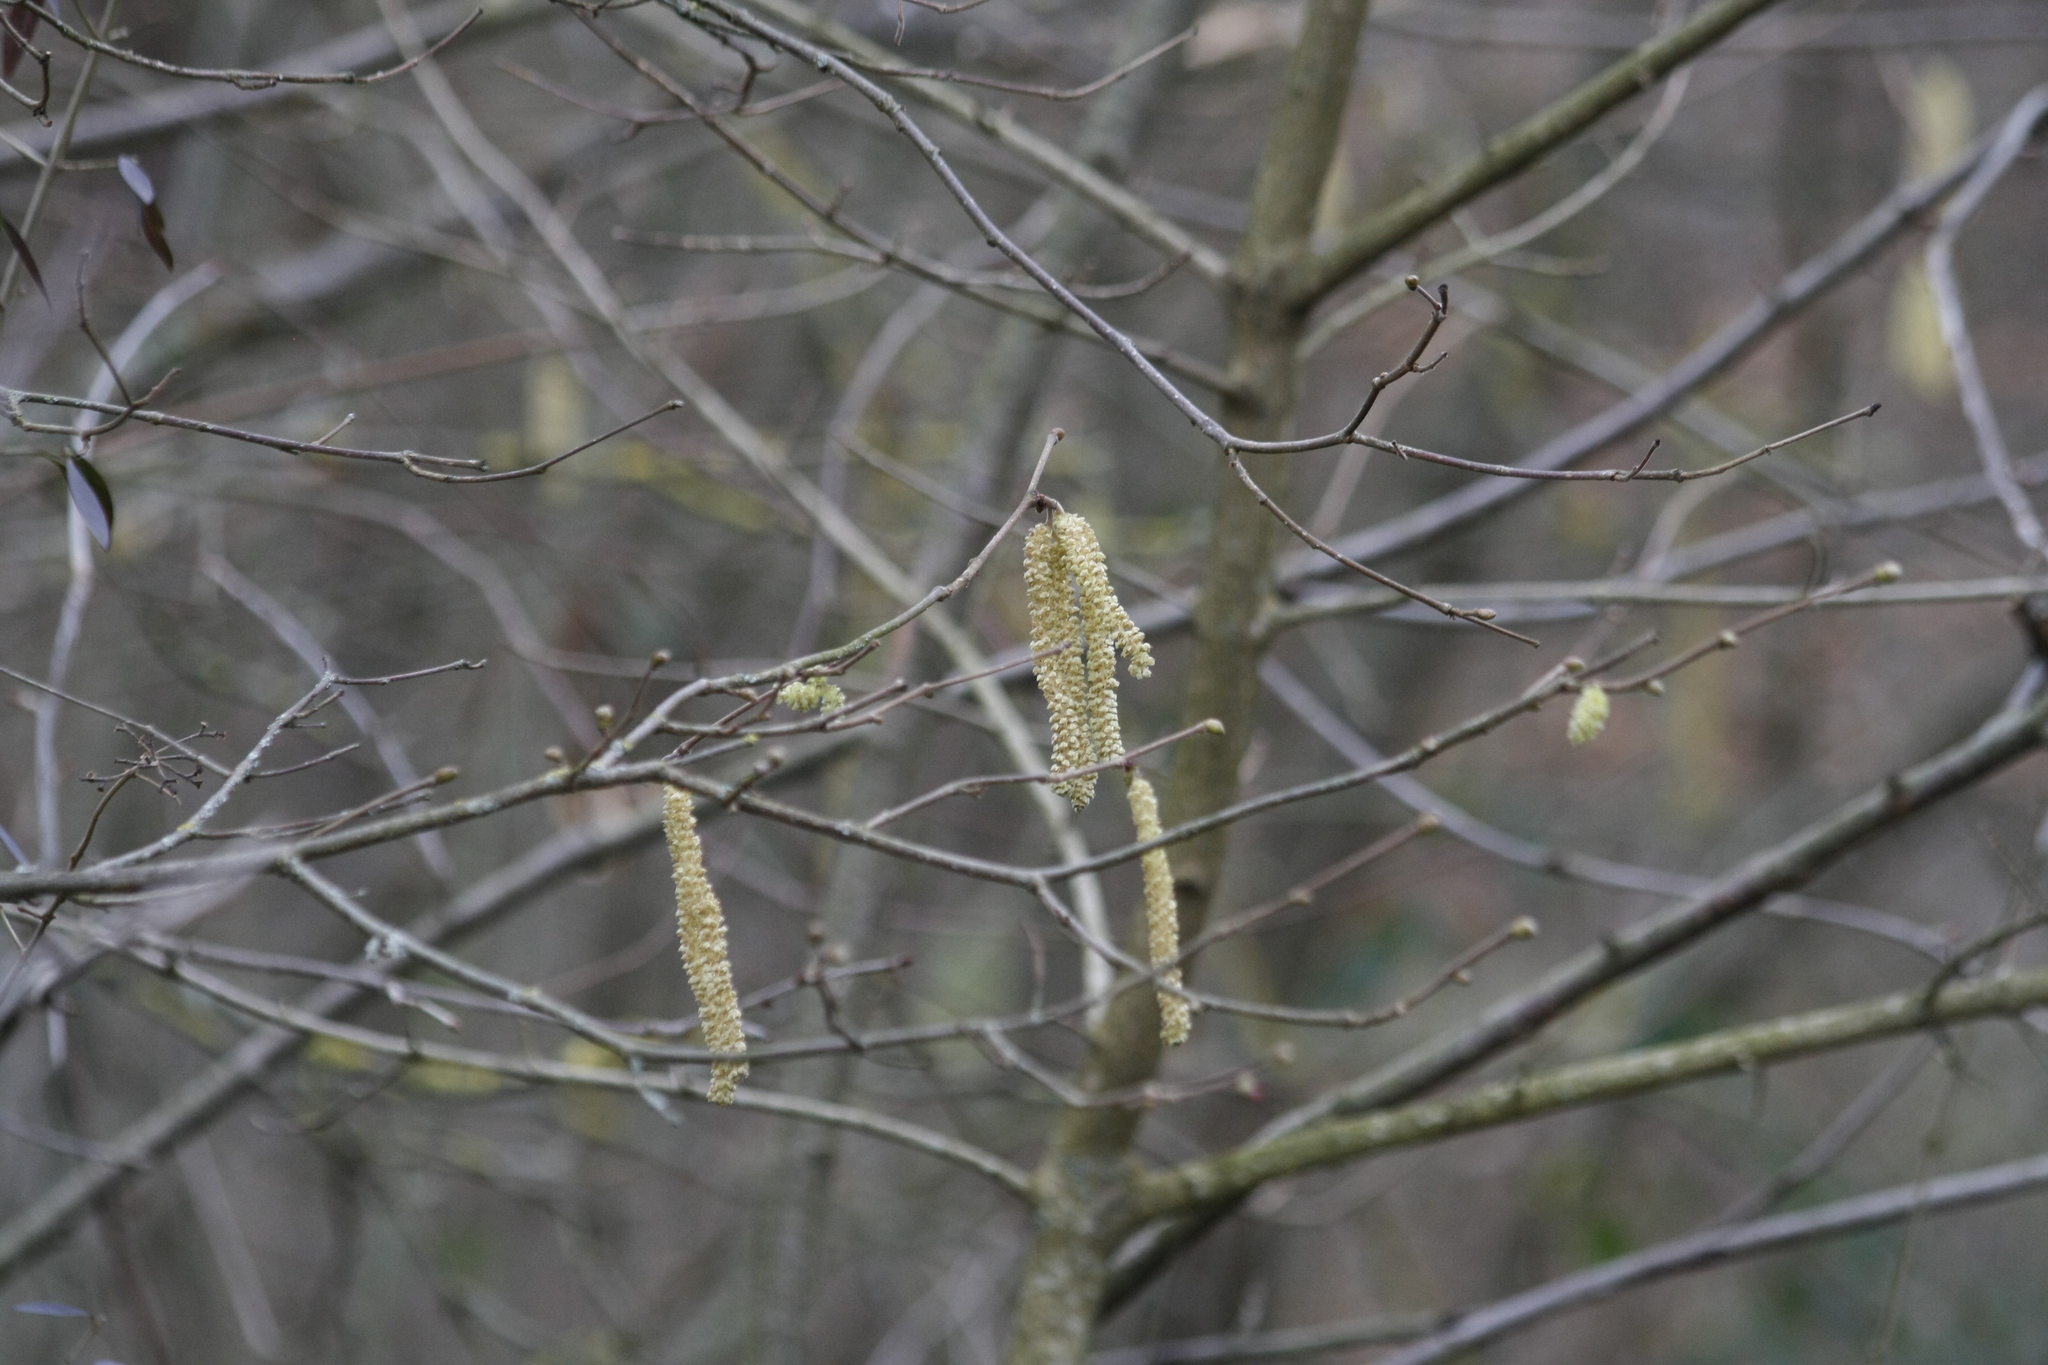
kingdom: Plantae
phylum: Tracheophyta
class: Magnoliopsida
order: Fagales
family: Betulaceae
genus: Corylus
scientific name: Corylus avellana
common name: European hazel
